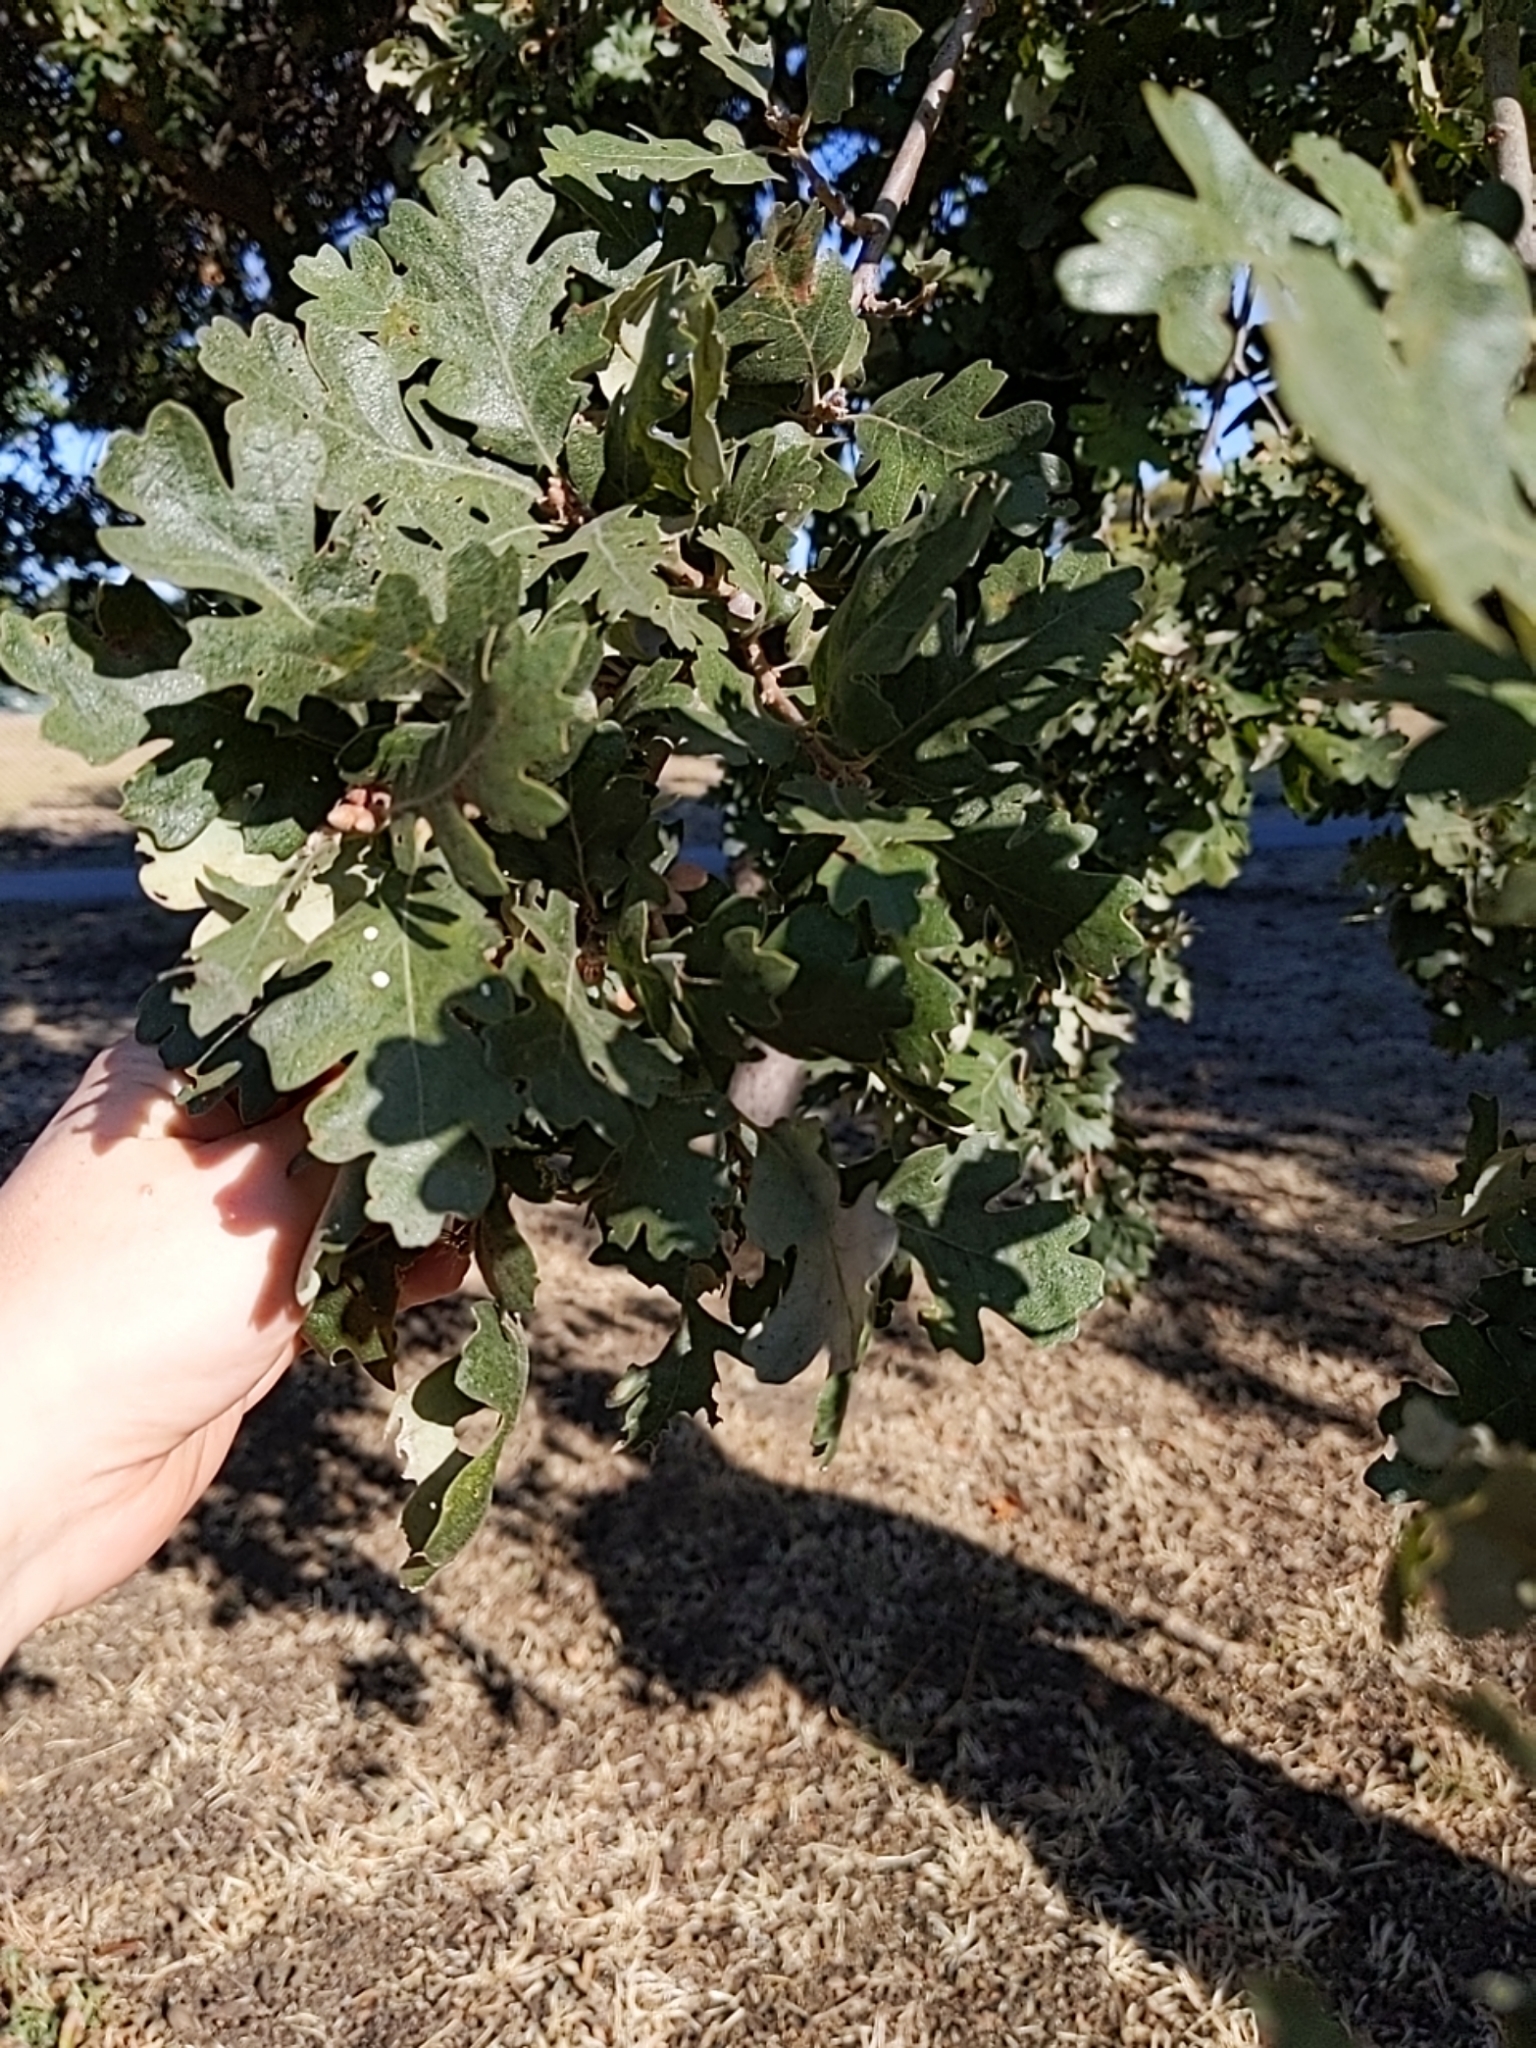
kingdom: Plantae
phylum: Tracheophyta
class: Magnoliopsida
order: Fagales
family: Fagaceae
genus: Quercus
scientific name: Quercus lobata
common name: Valley oak
